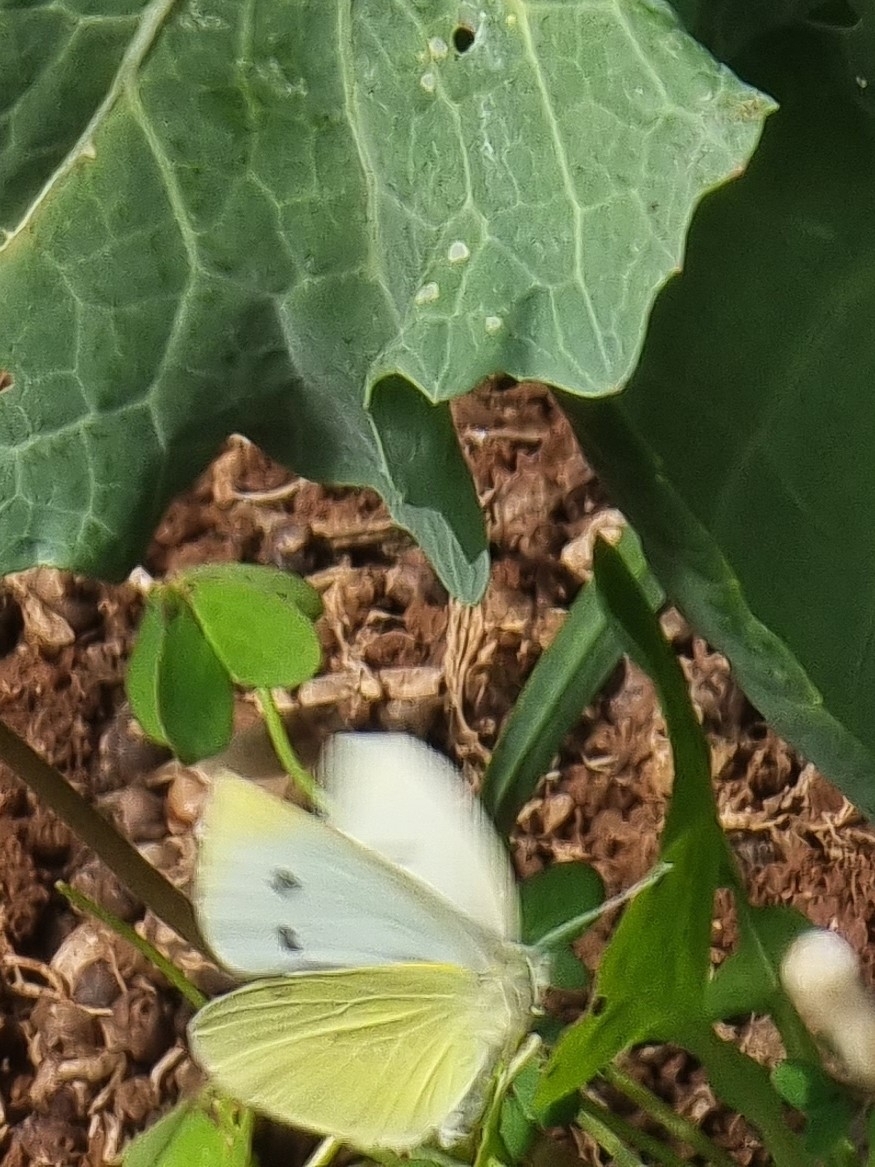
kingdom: Animalia
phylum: Arthropoda
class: Insecta
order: Lepidoptera
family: Pieridae
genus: Pieris
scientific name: Pieris rapae
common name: Small white
